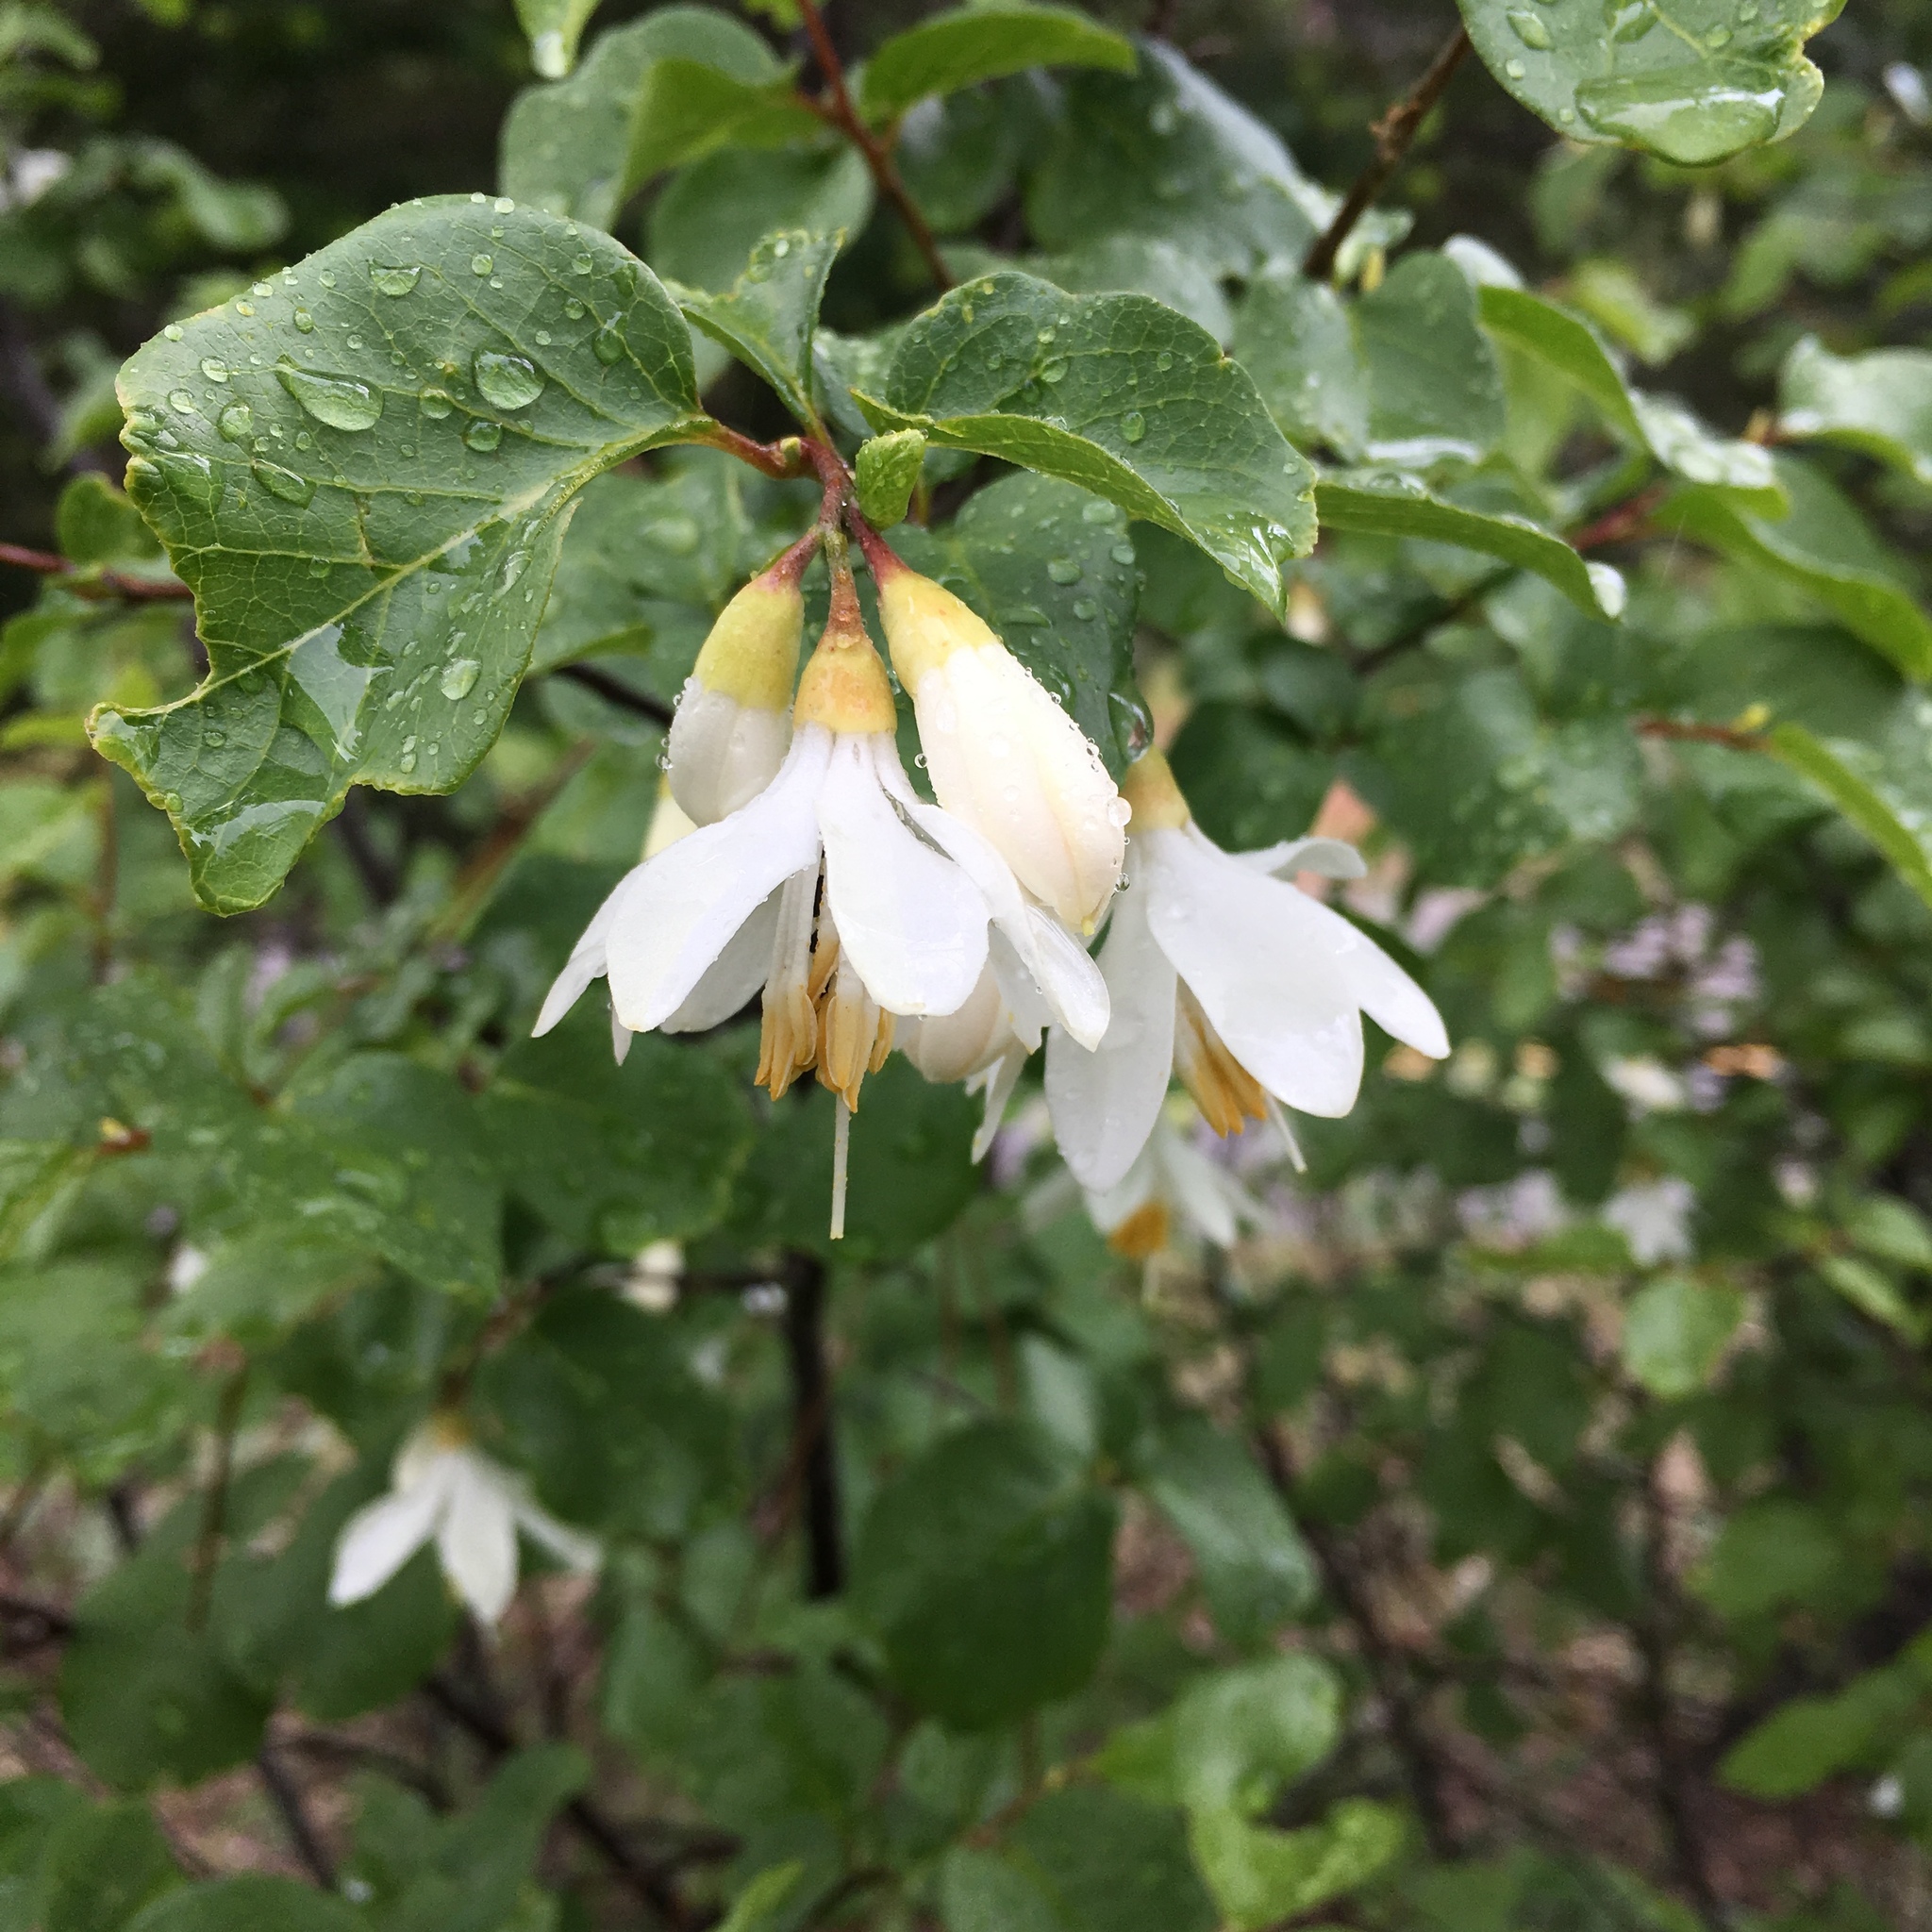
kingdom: Plantae
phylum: Tracheophyta
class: Magnoliopsida
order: Ericales
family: Styracaceae
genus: Styrax
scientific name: Styrax redivivus
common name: California styrax
